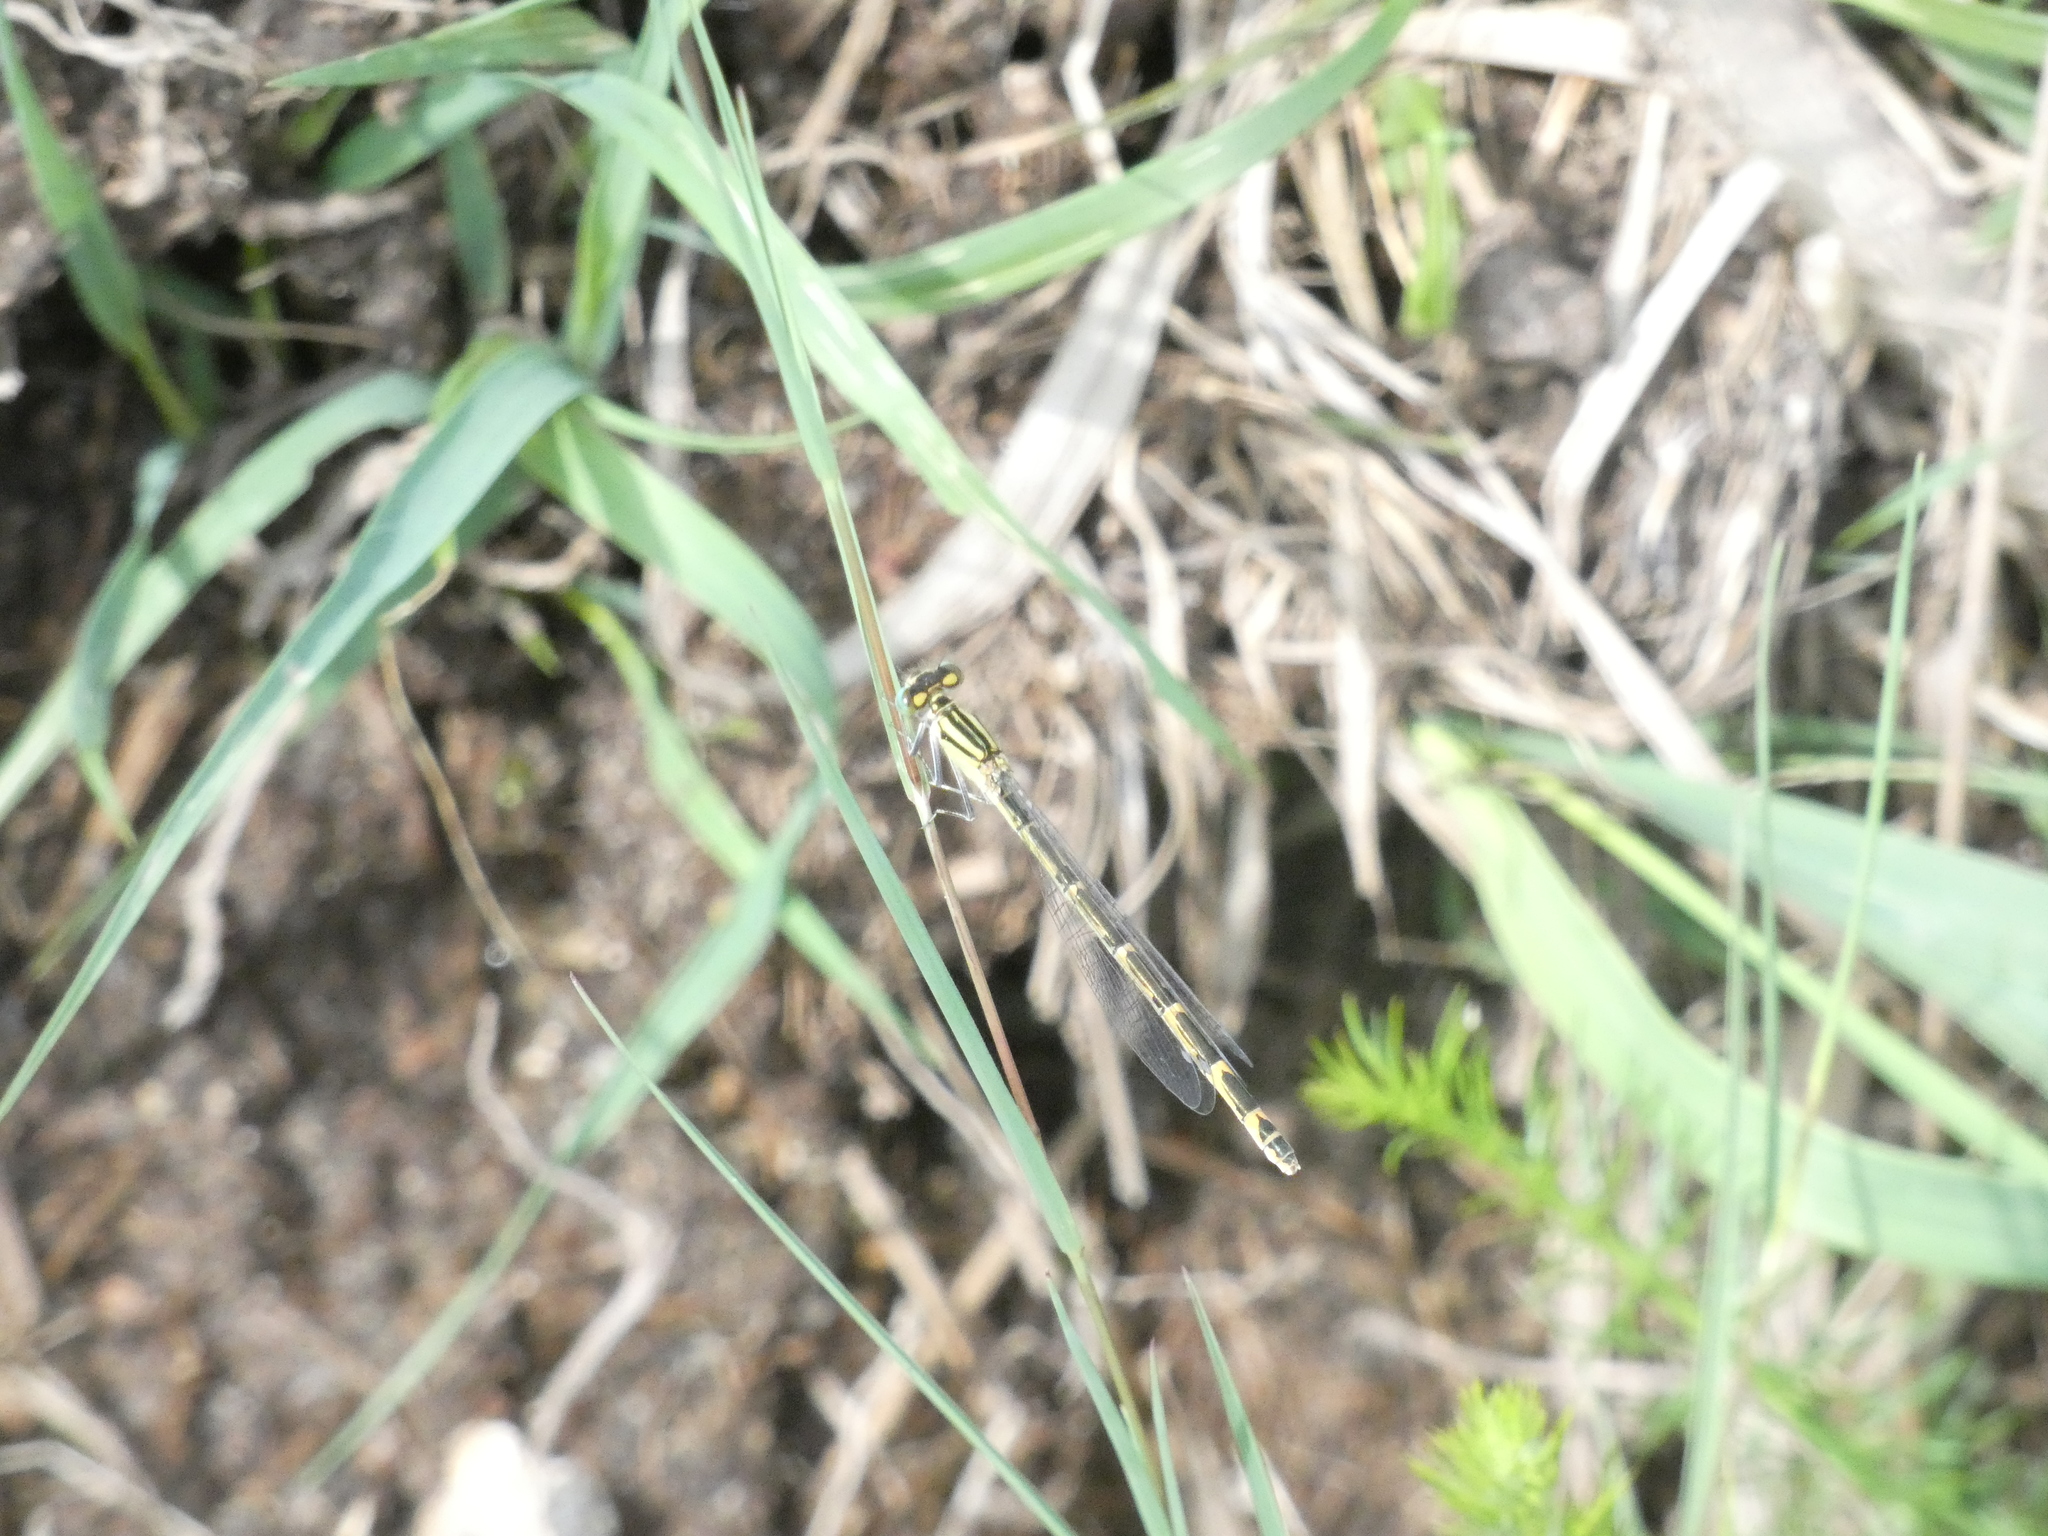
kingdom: Animalia
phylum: Arthropoda
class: Insecta
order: Odonata
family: Coenagrionidae
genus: Enallagma
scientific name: Enallagma cyathigerum
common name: Common blue damselfly
